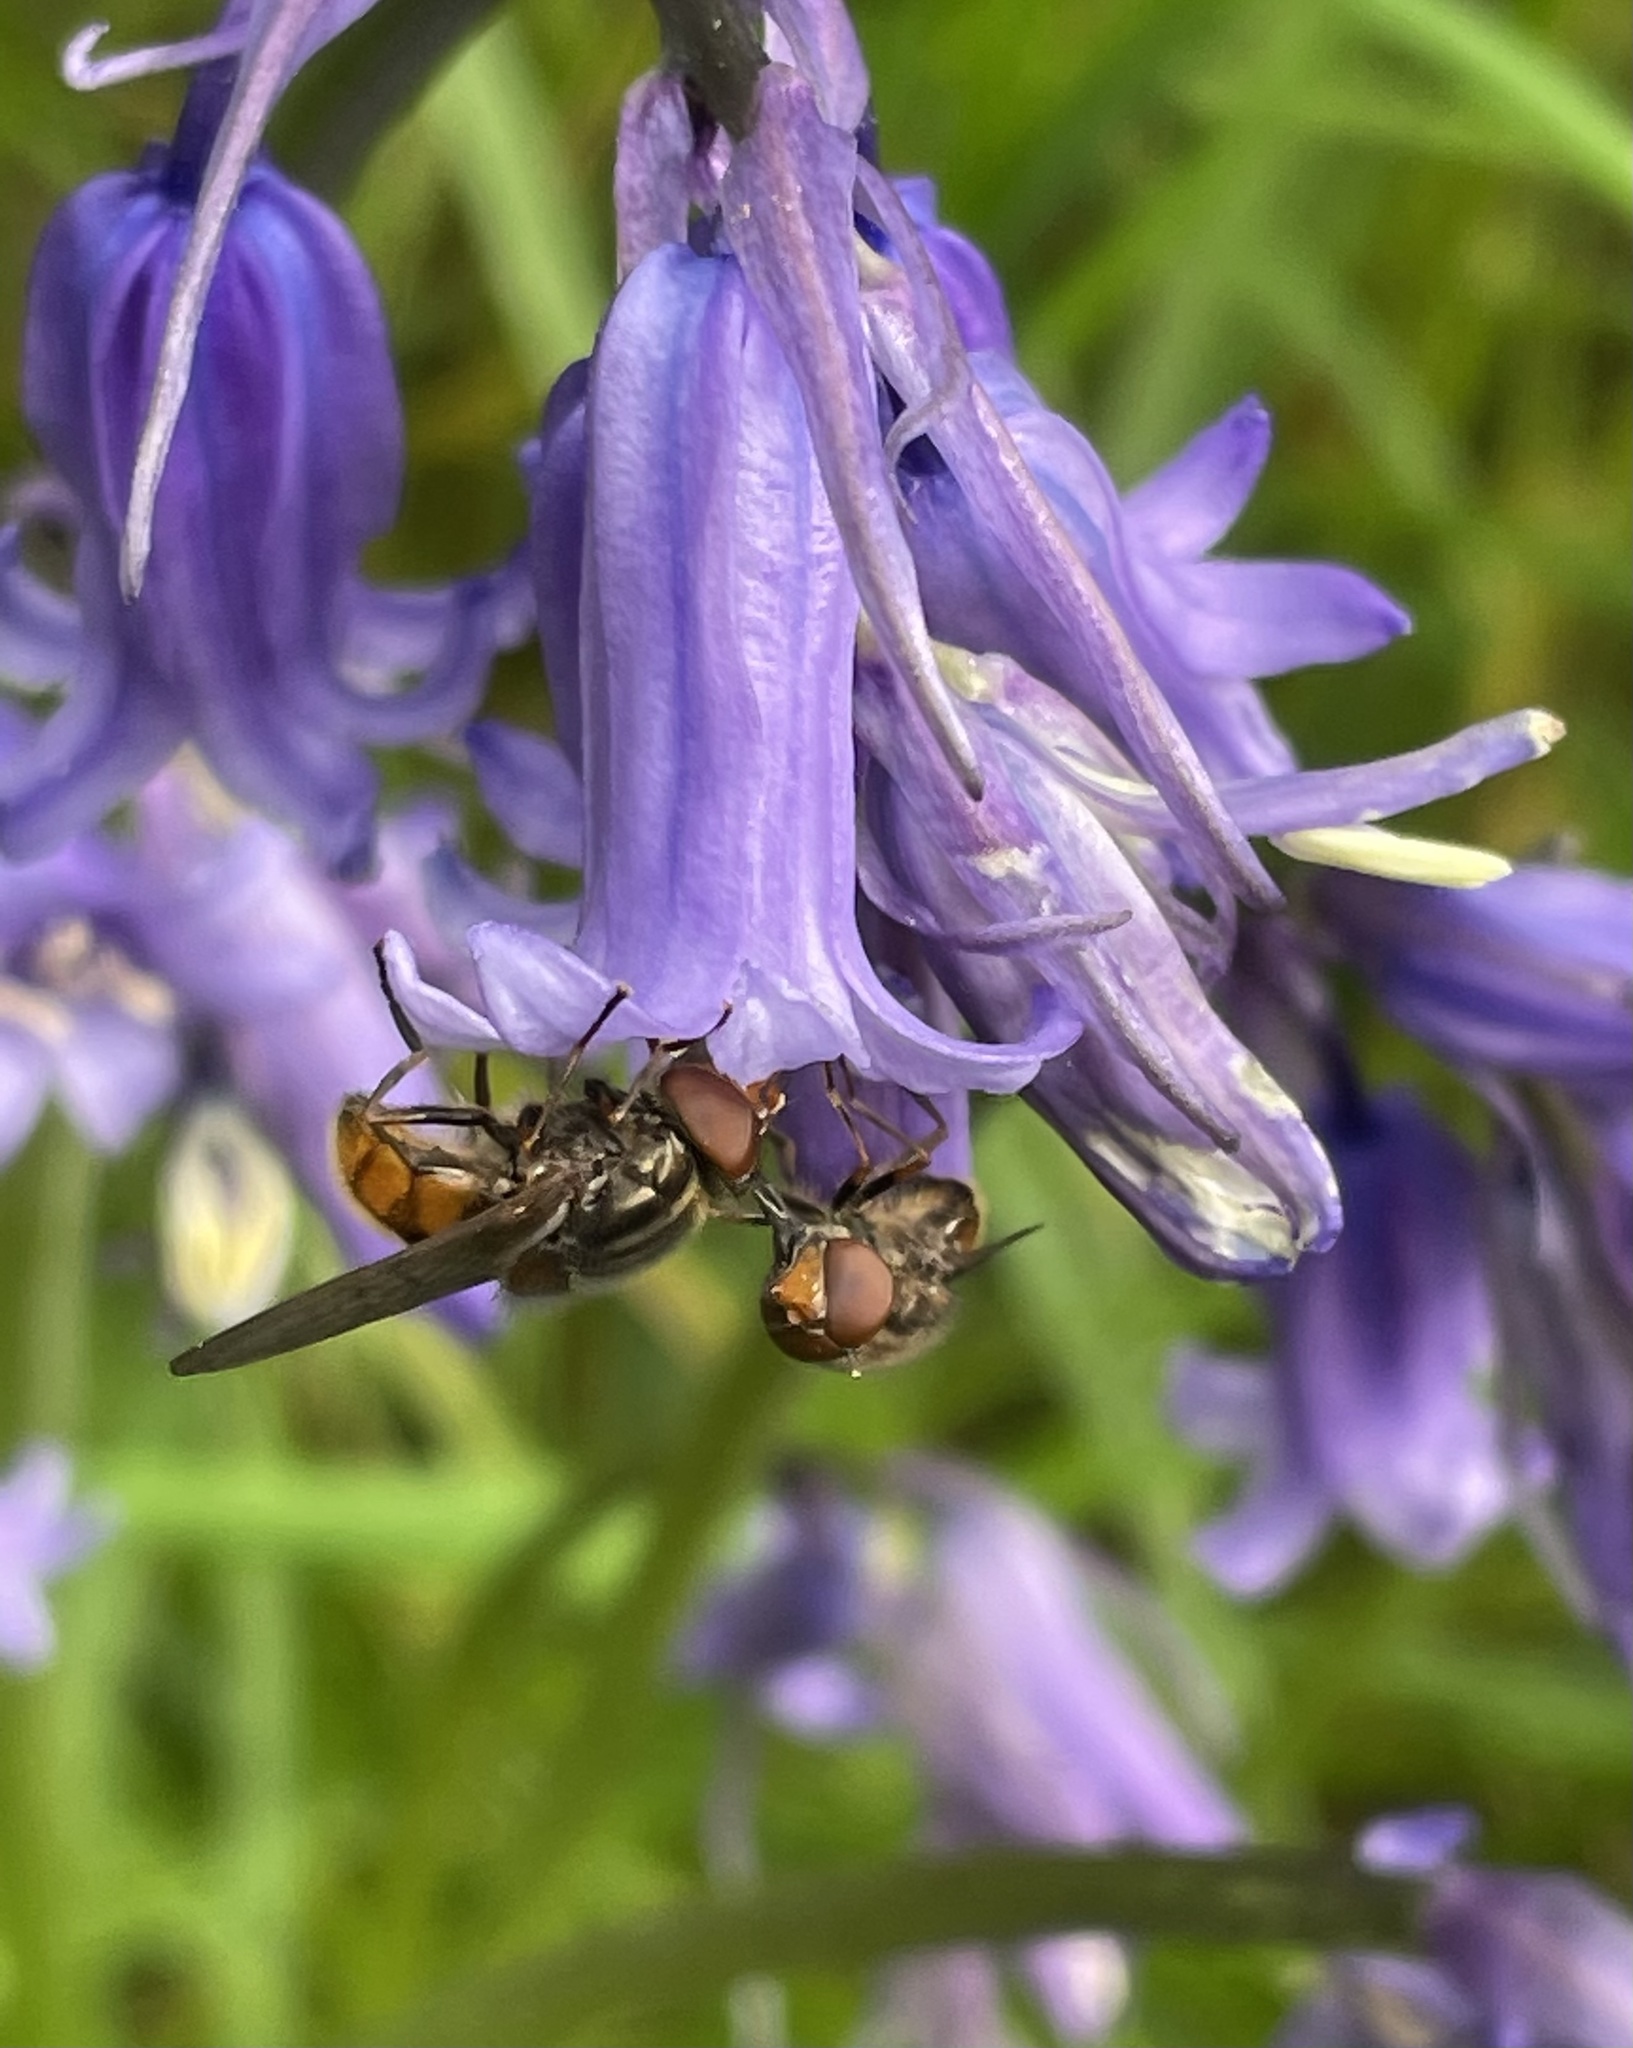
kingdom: Animalia
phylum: Arthropoda
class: Insecta
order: Diptera
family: Syrphidae
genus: Rhingia
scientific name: Rhingia campestris
